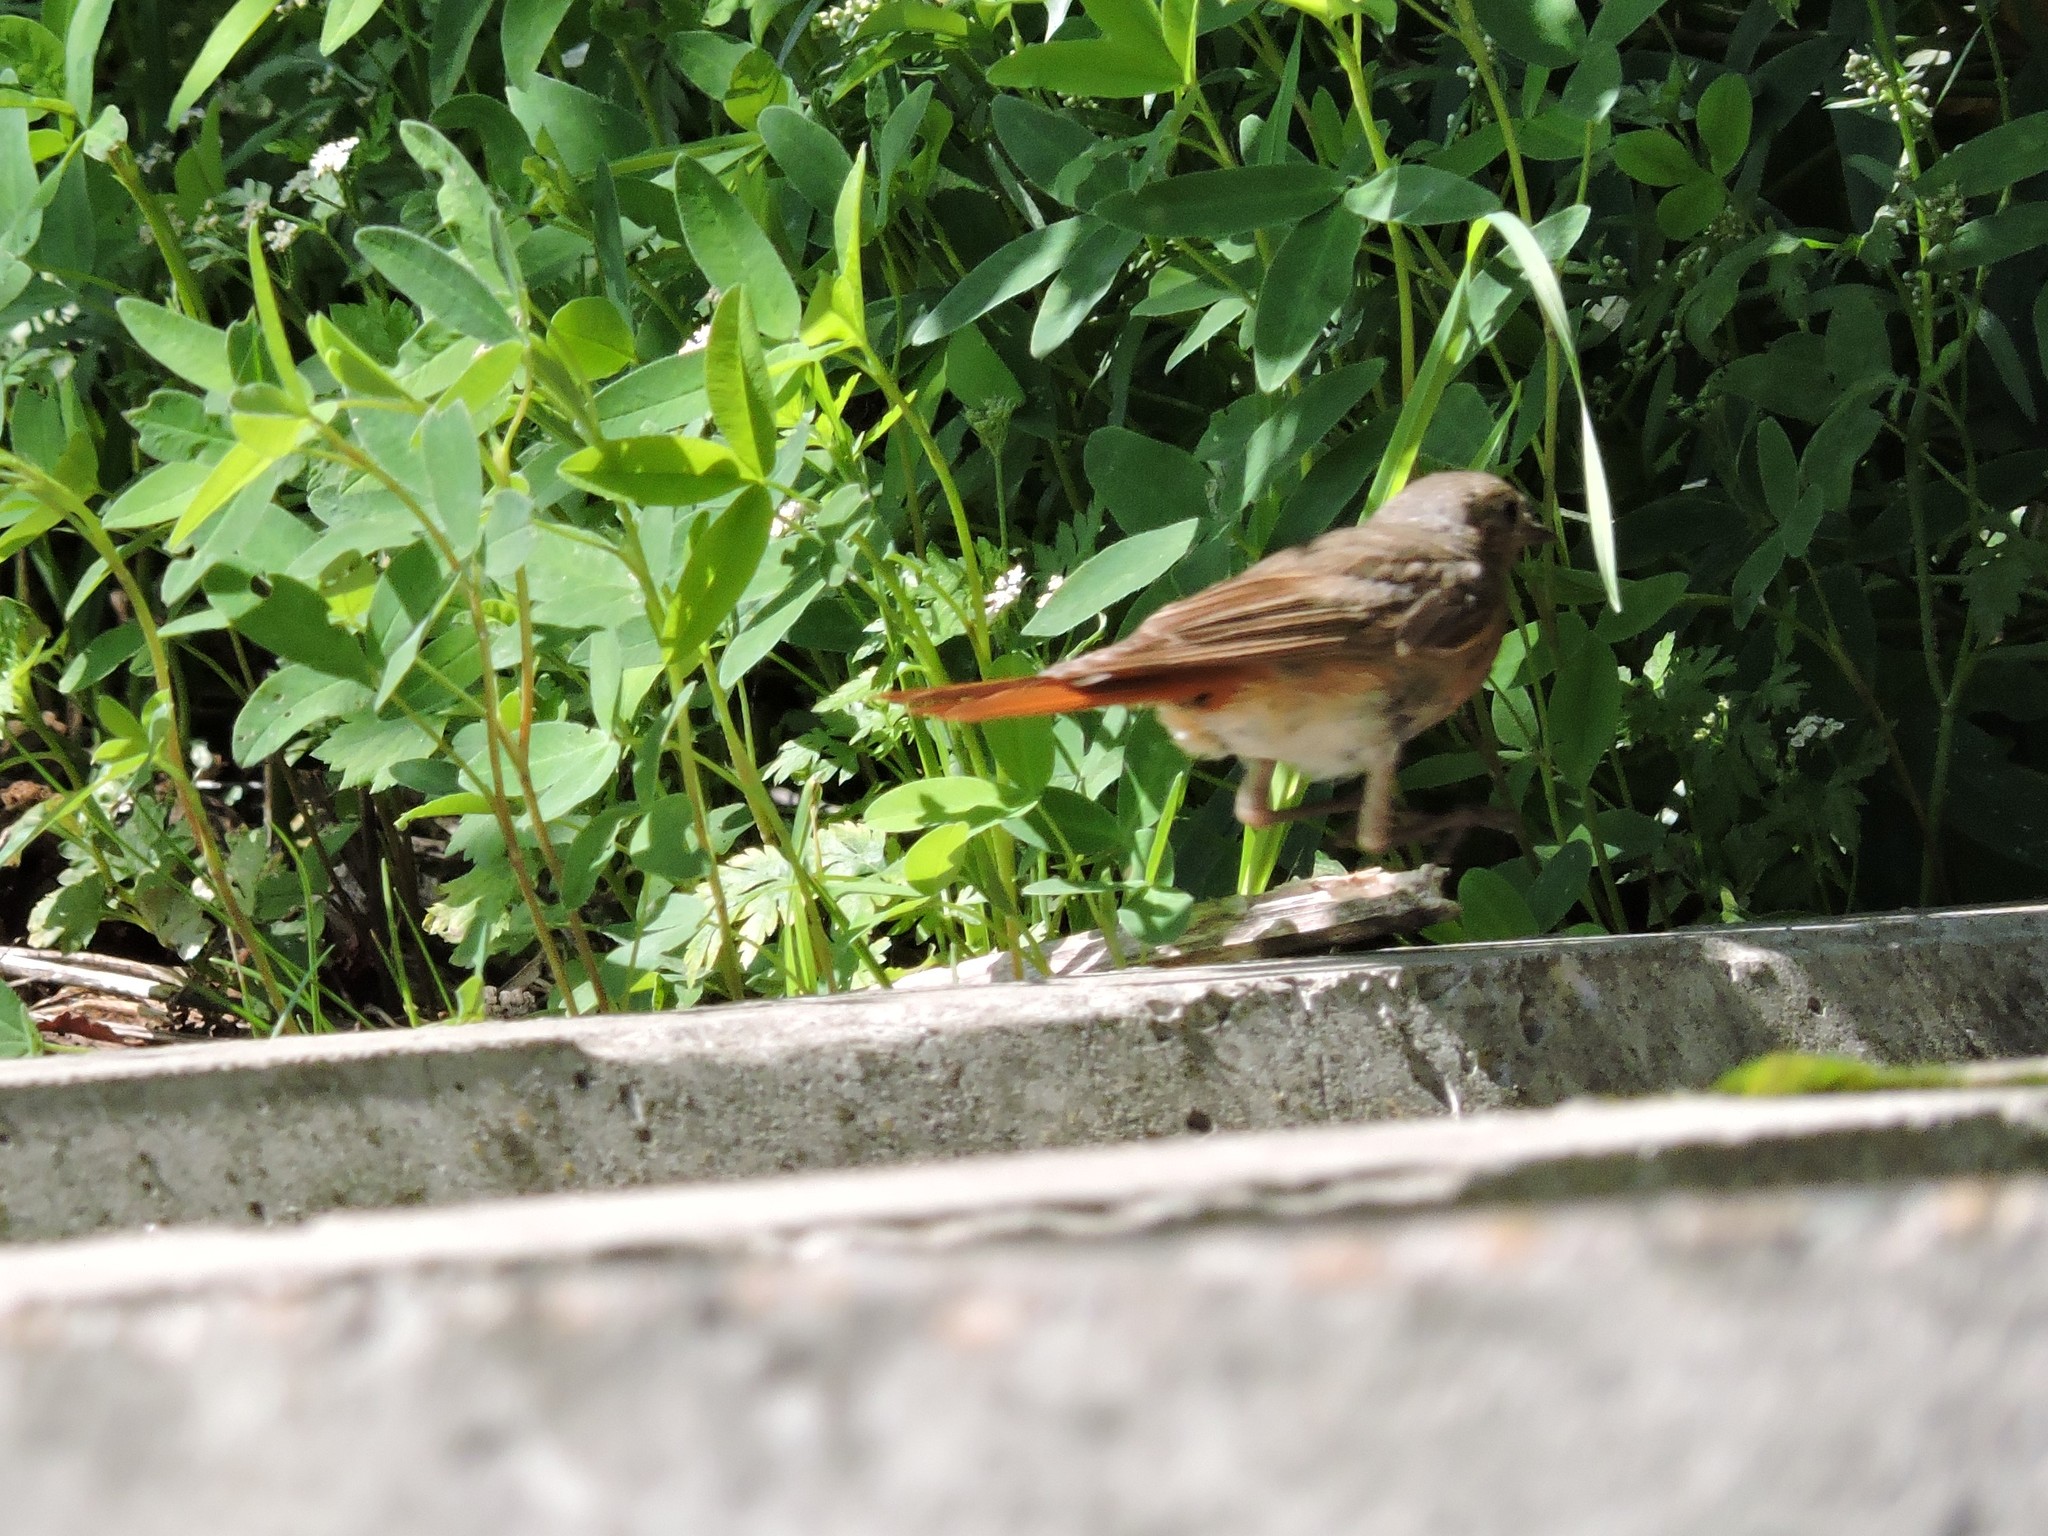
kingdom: Animalia
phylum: Chordata
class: Aves
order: Passeriformes
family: Muscicapidae
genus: Phoenicurus
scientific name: Phoenicurus phoenicurus
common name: Common redstart
